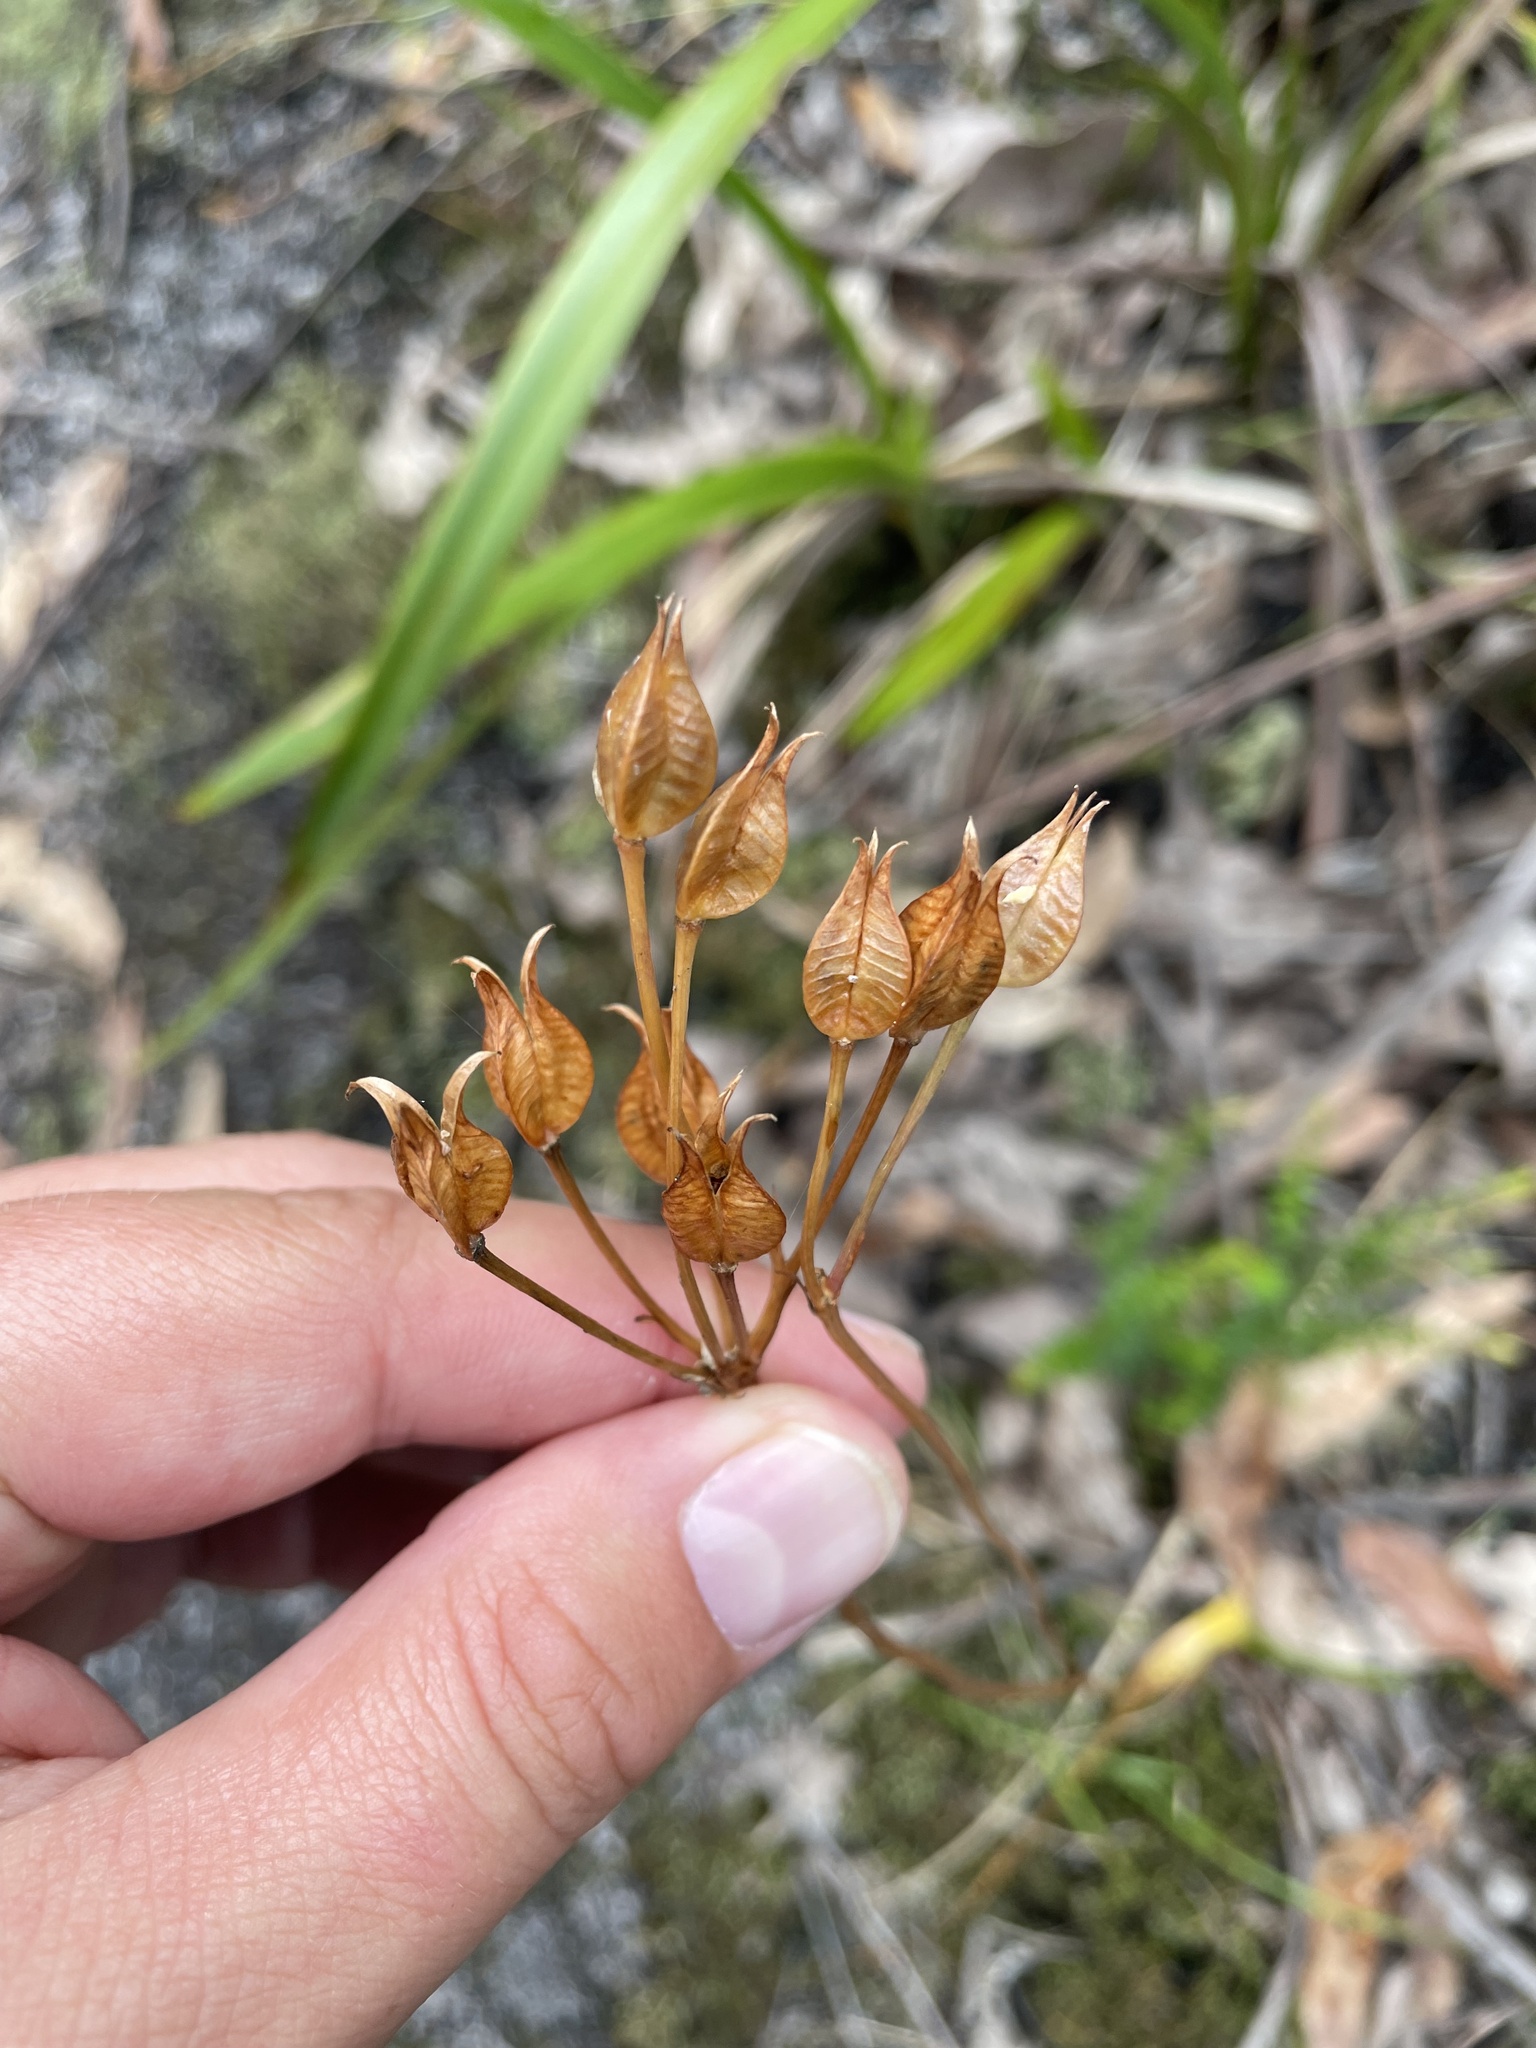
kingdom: Plantae
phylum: Tracheophyta
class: Liliopsida
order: Liliales
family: Colchicaceae
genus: Burchardia
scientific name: Burchardia umbellata
